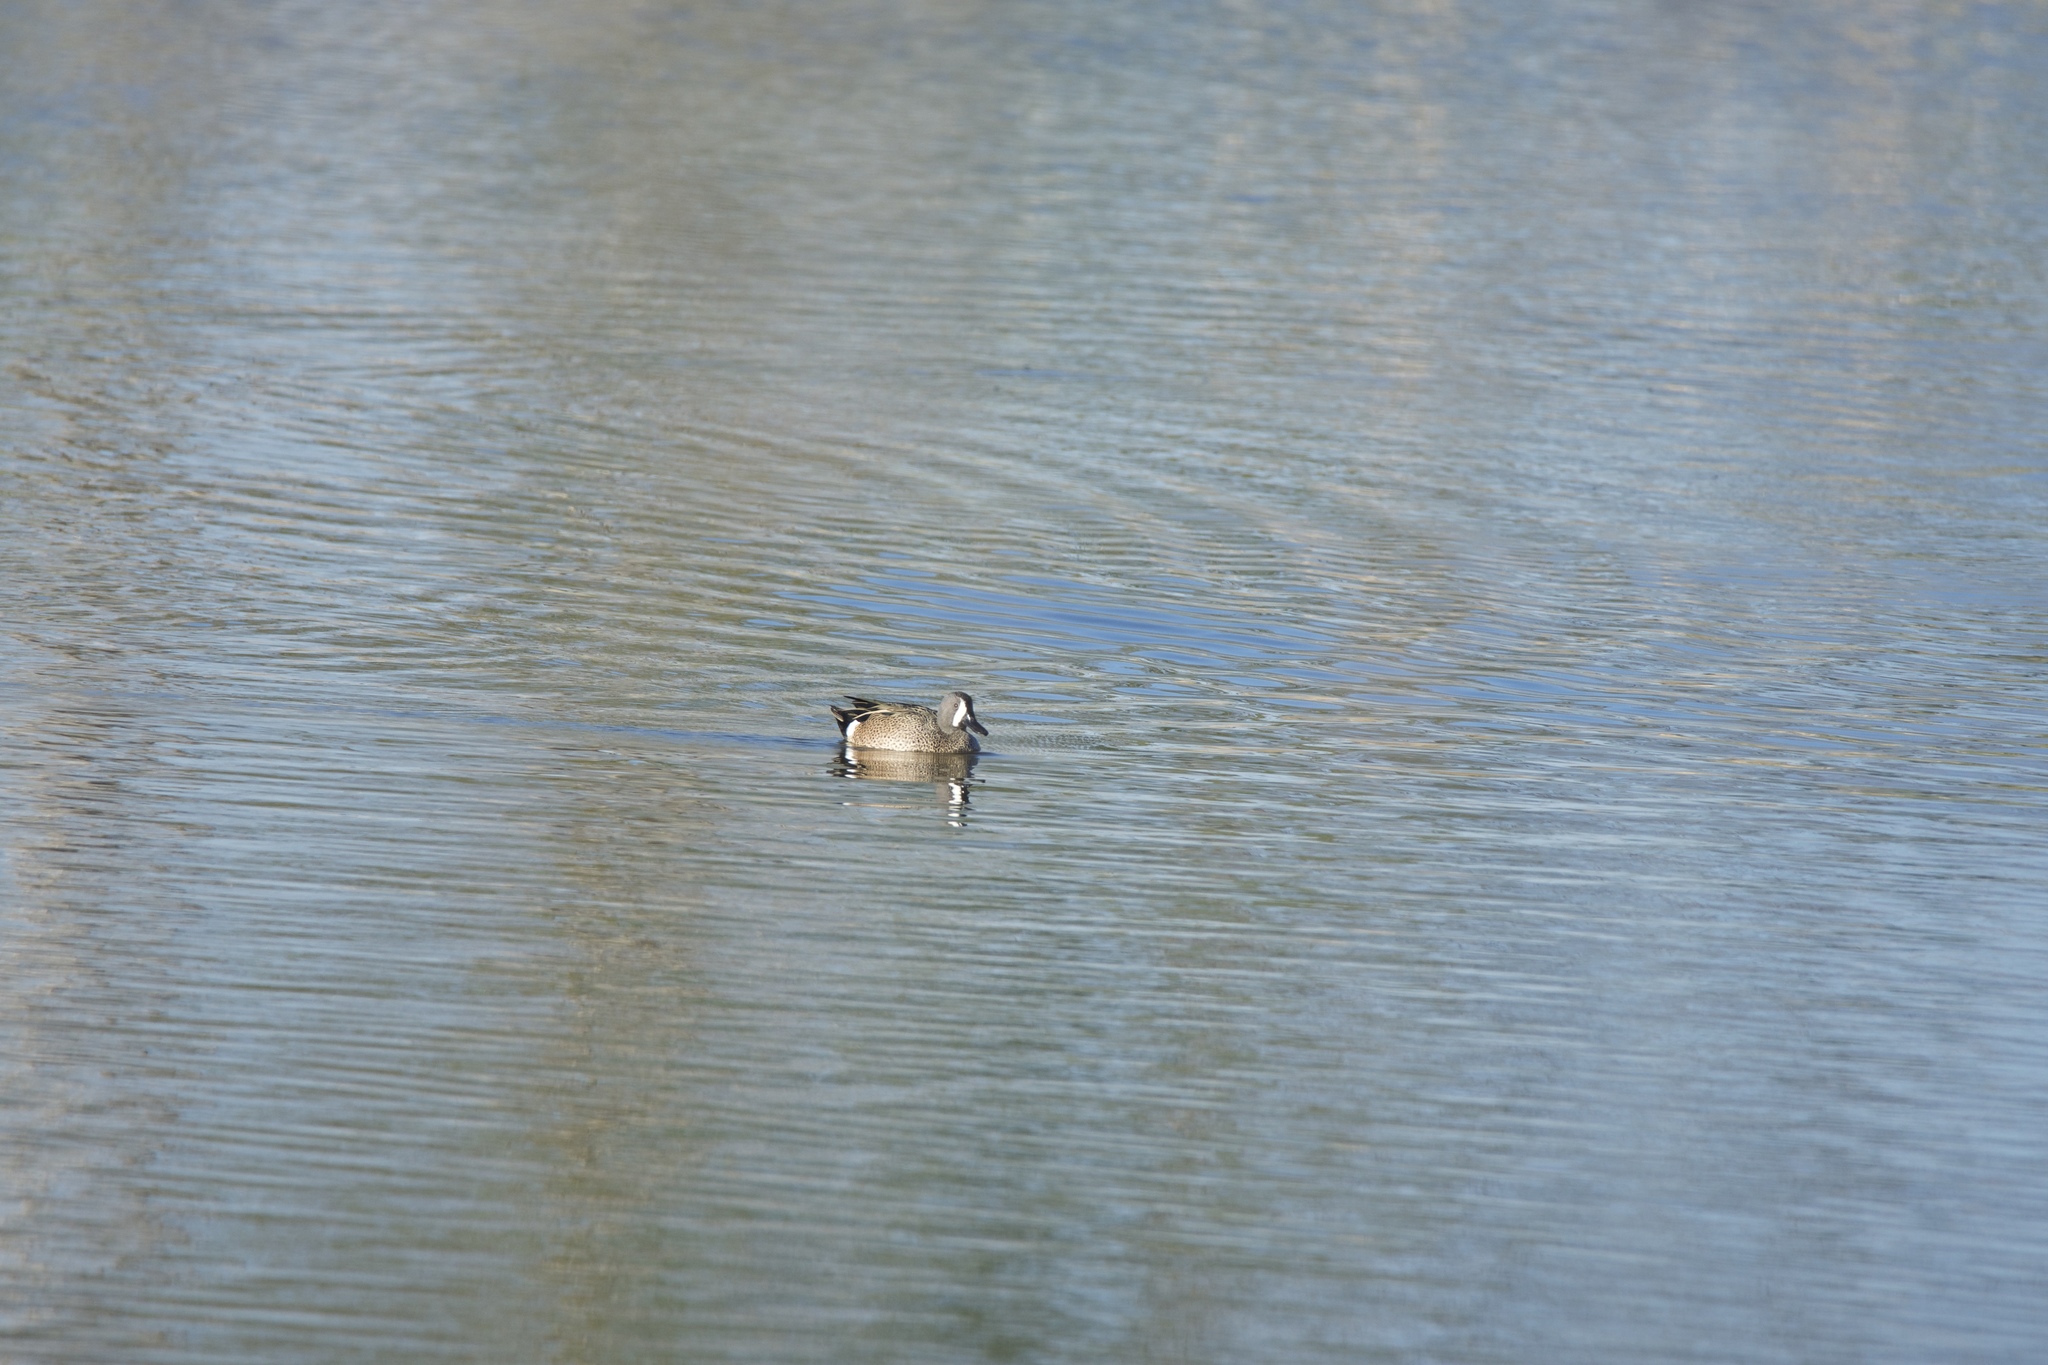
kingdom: Animalia
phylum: Chordata
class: Aves
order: Anseriformes
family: Anatidae
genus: Spatula
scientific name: Spatula discors
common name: Blue-winged teal
